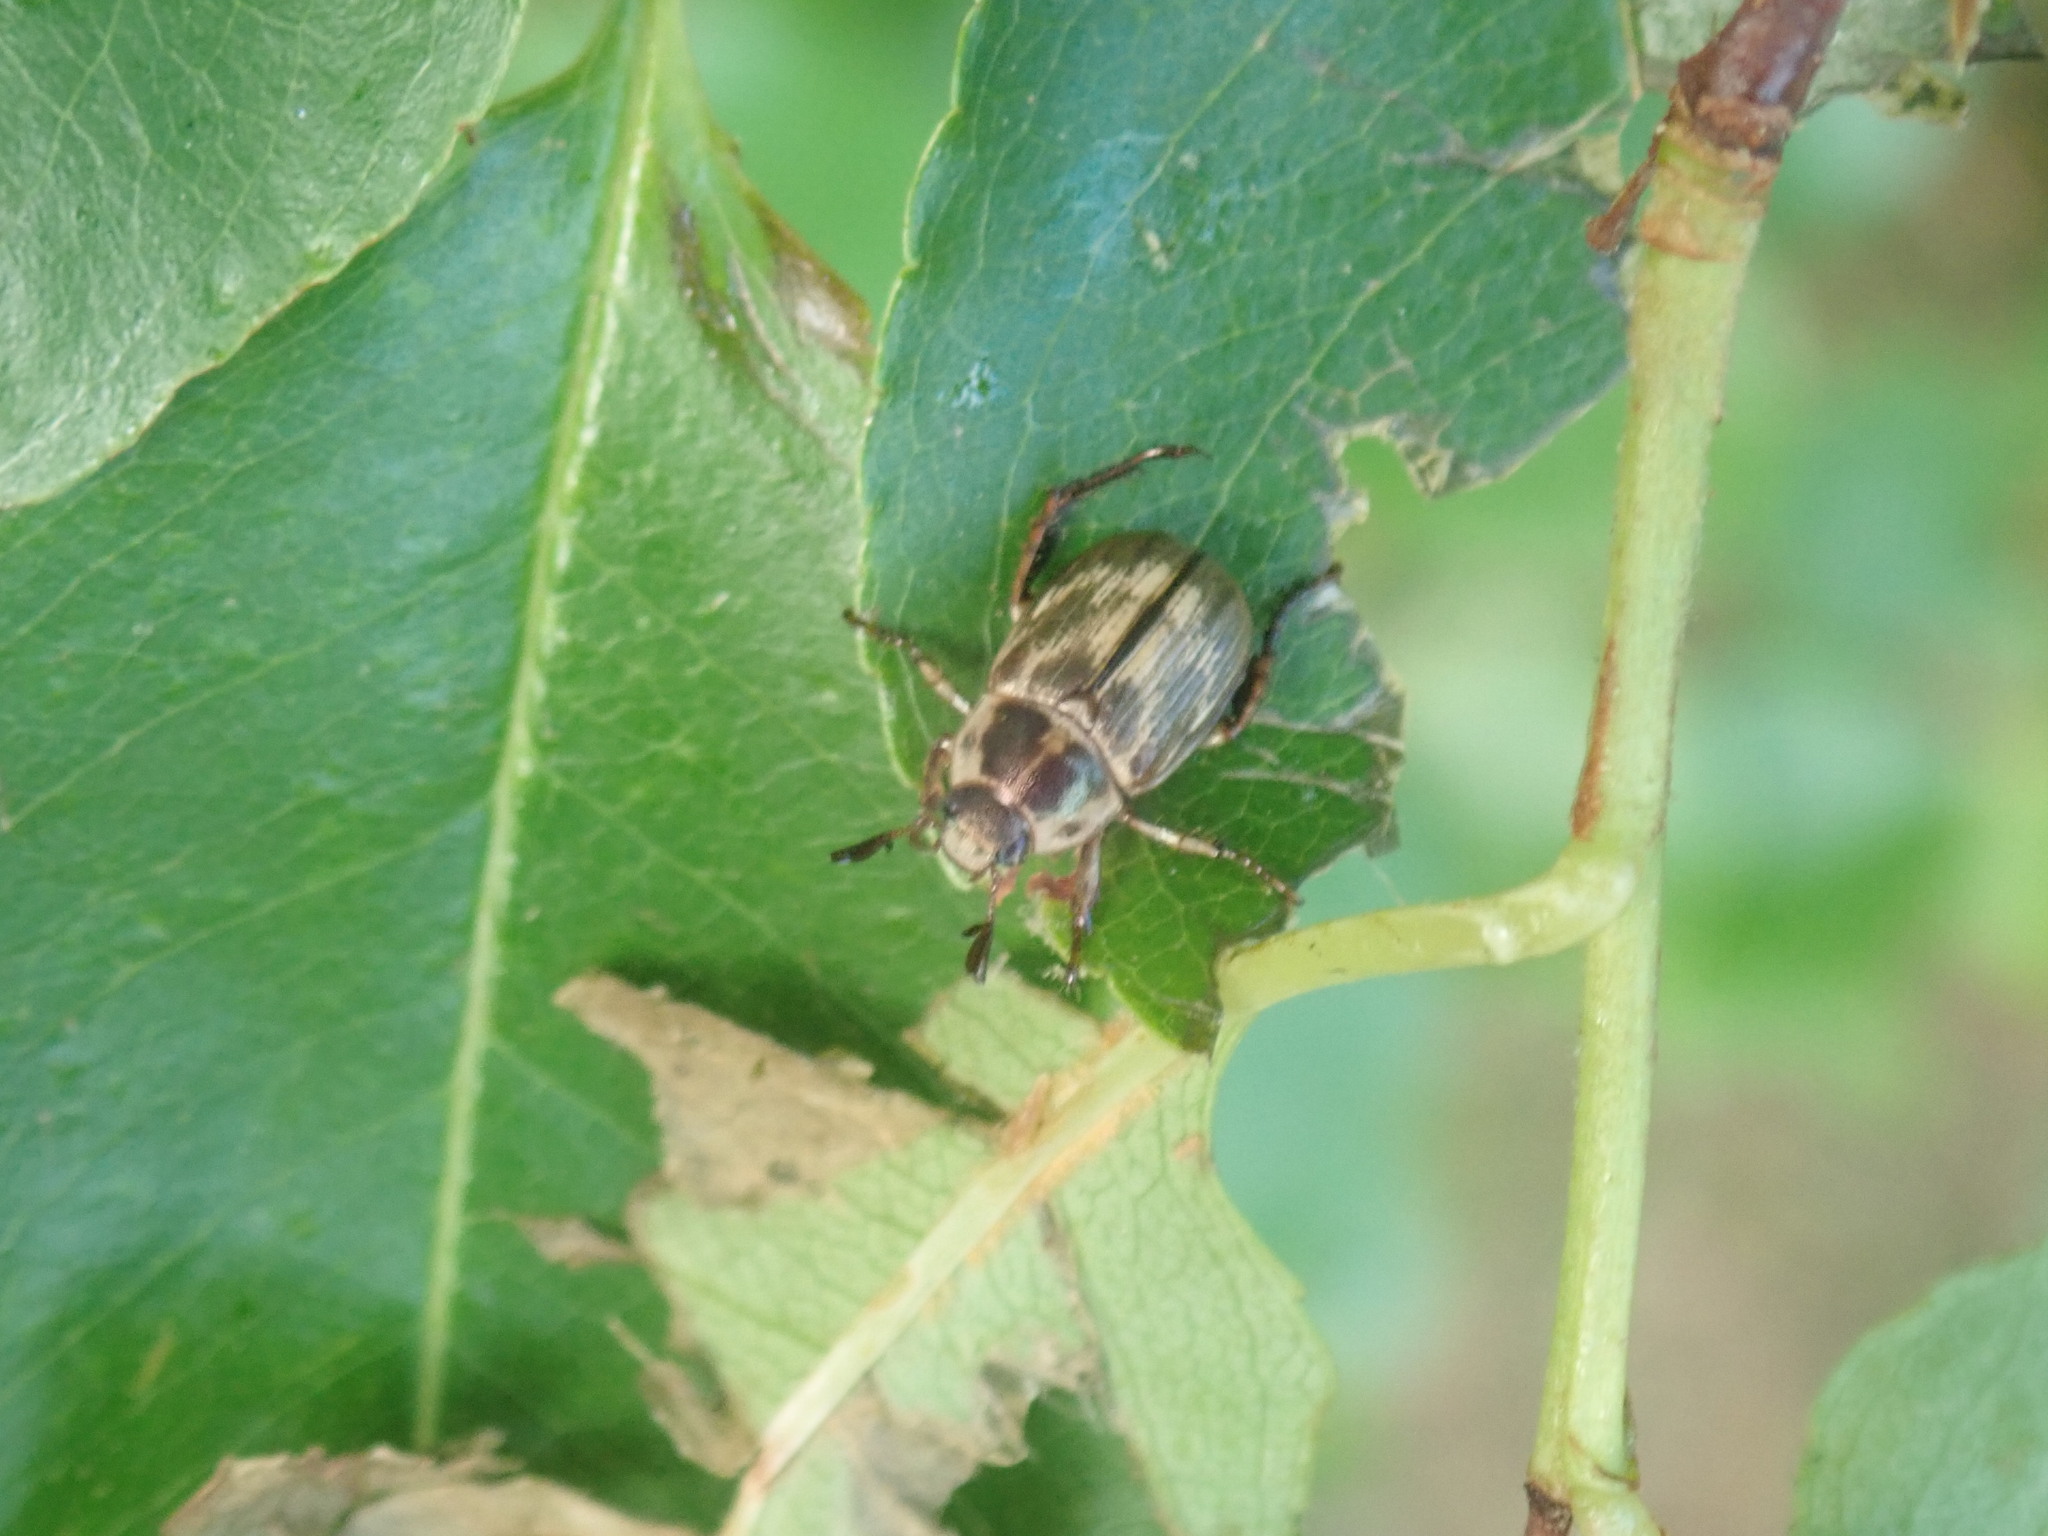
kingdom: Animalia
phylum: Arthropoda
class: Insecta
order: Coleoptera
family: Scarabaeidae
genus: Exomala
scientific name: Exomala orientalis
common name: Oriental beetle
